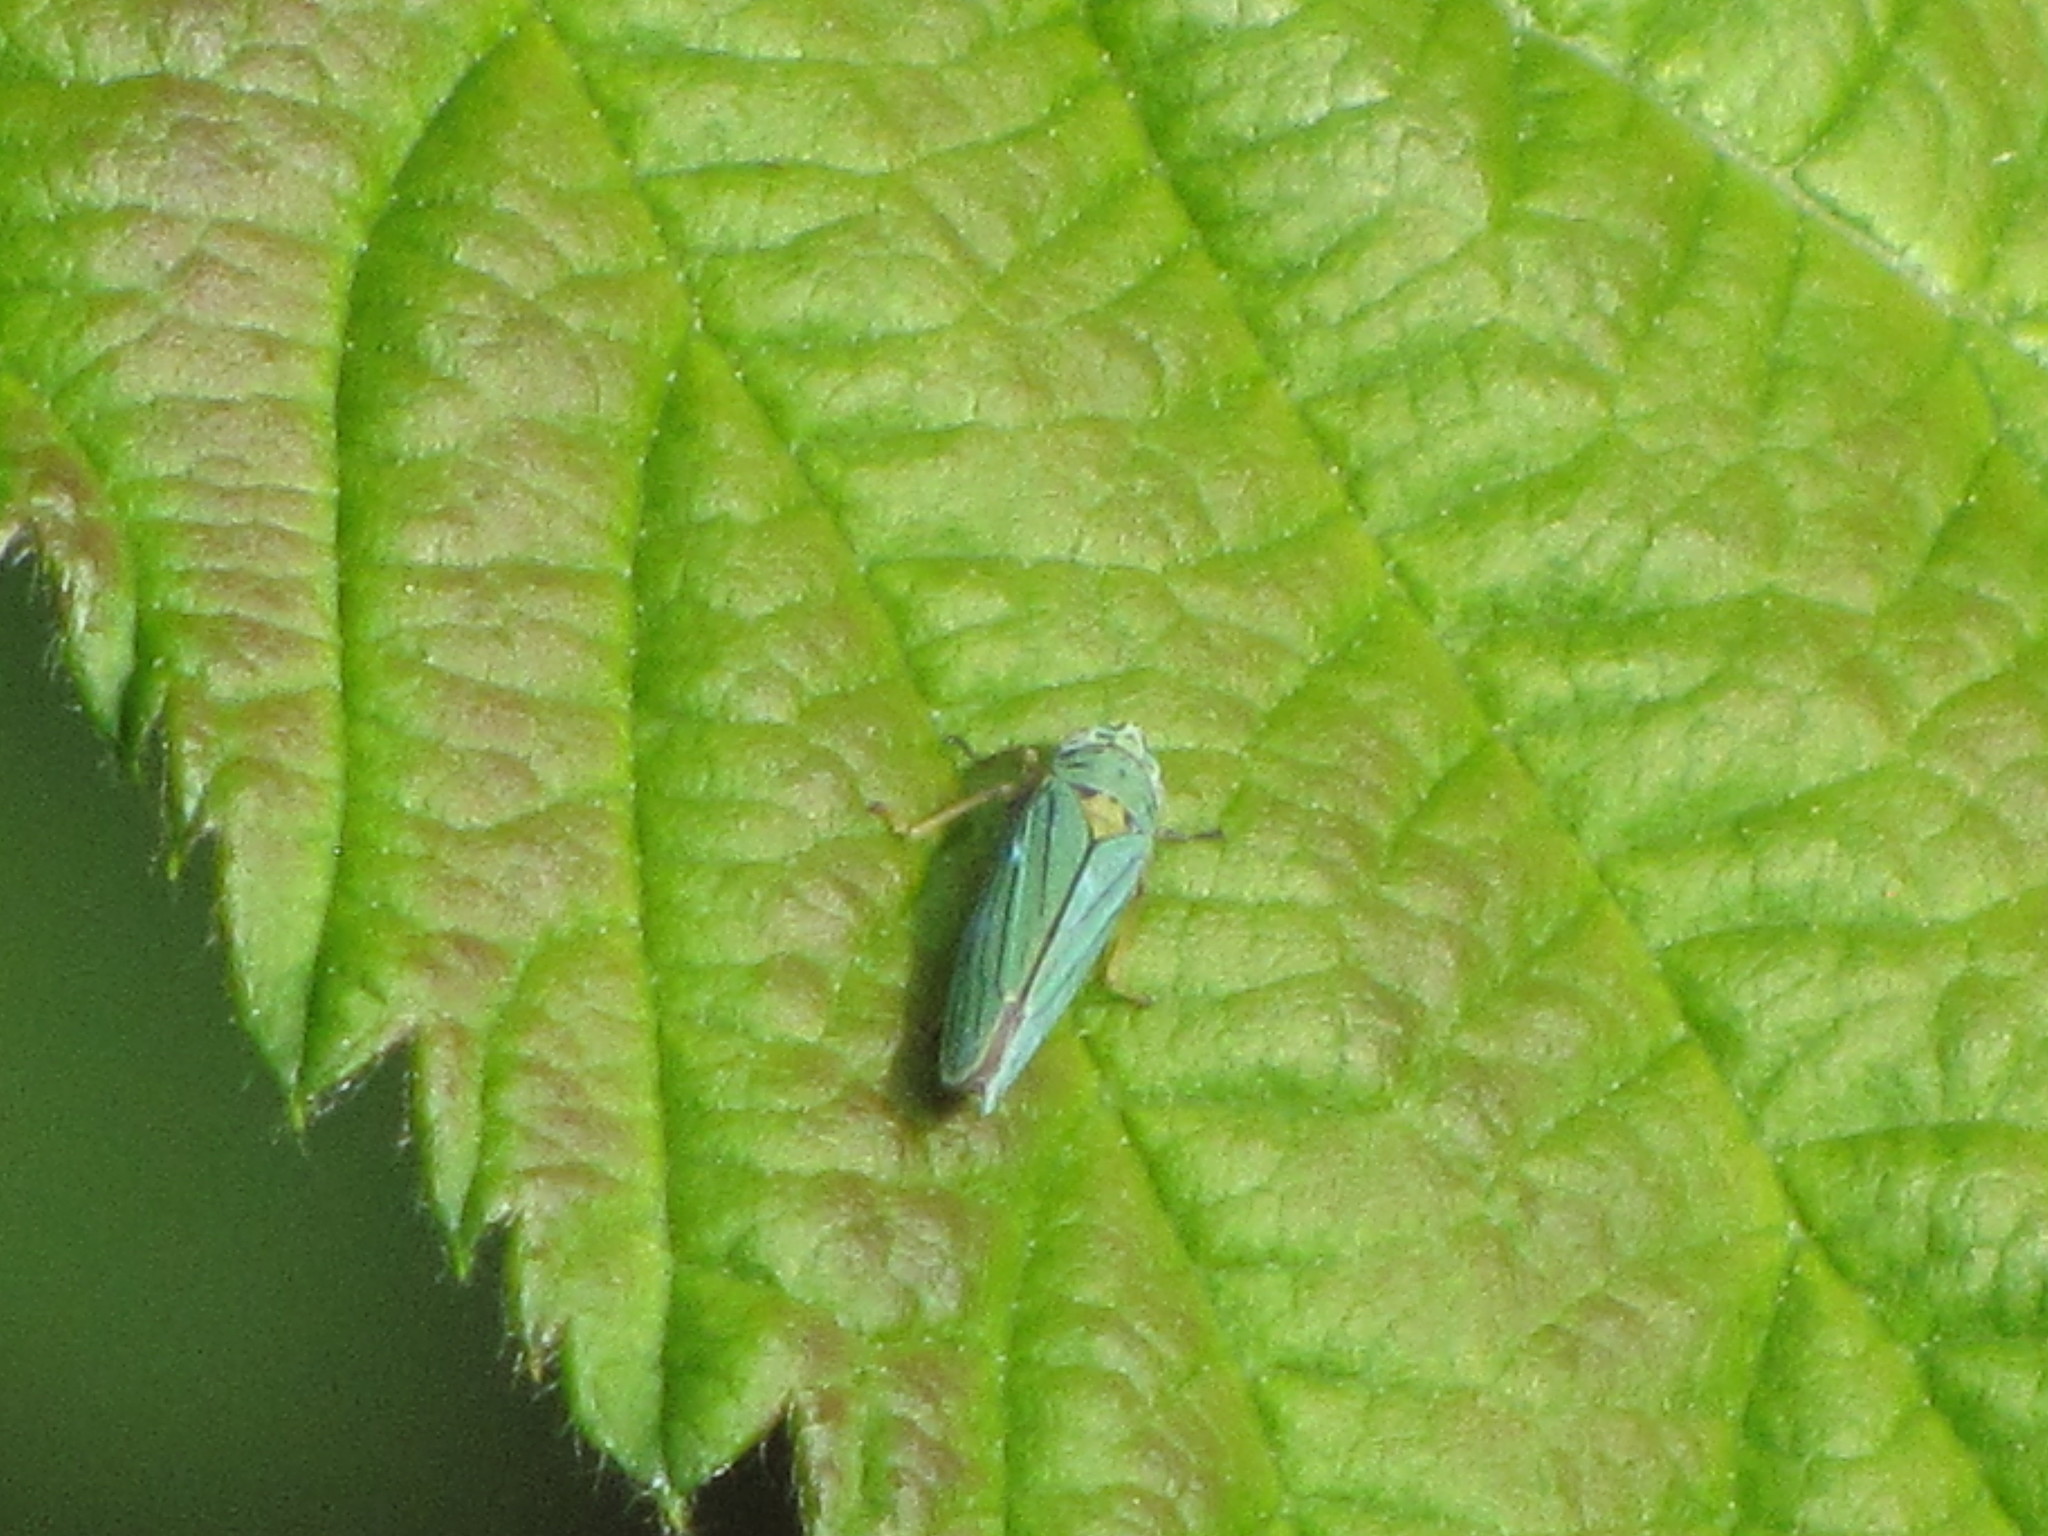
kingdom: Animalia
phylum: Arthropoda
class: Insecta
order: Hemiptera
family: Cicadellidae
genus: Graphocephala
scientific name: Graphocephala atropunctata
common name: Blue-green sharpshooter
